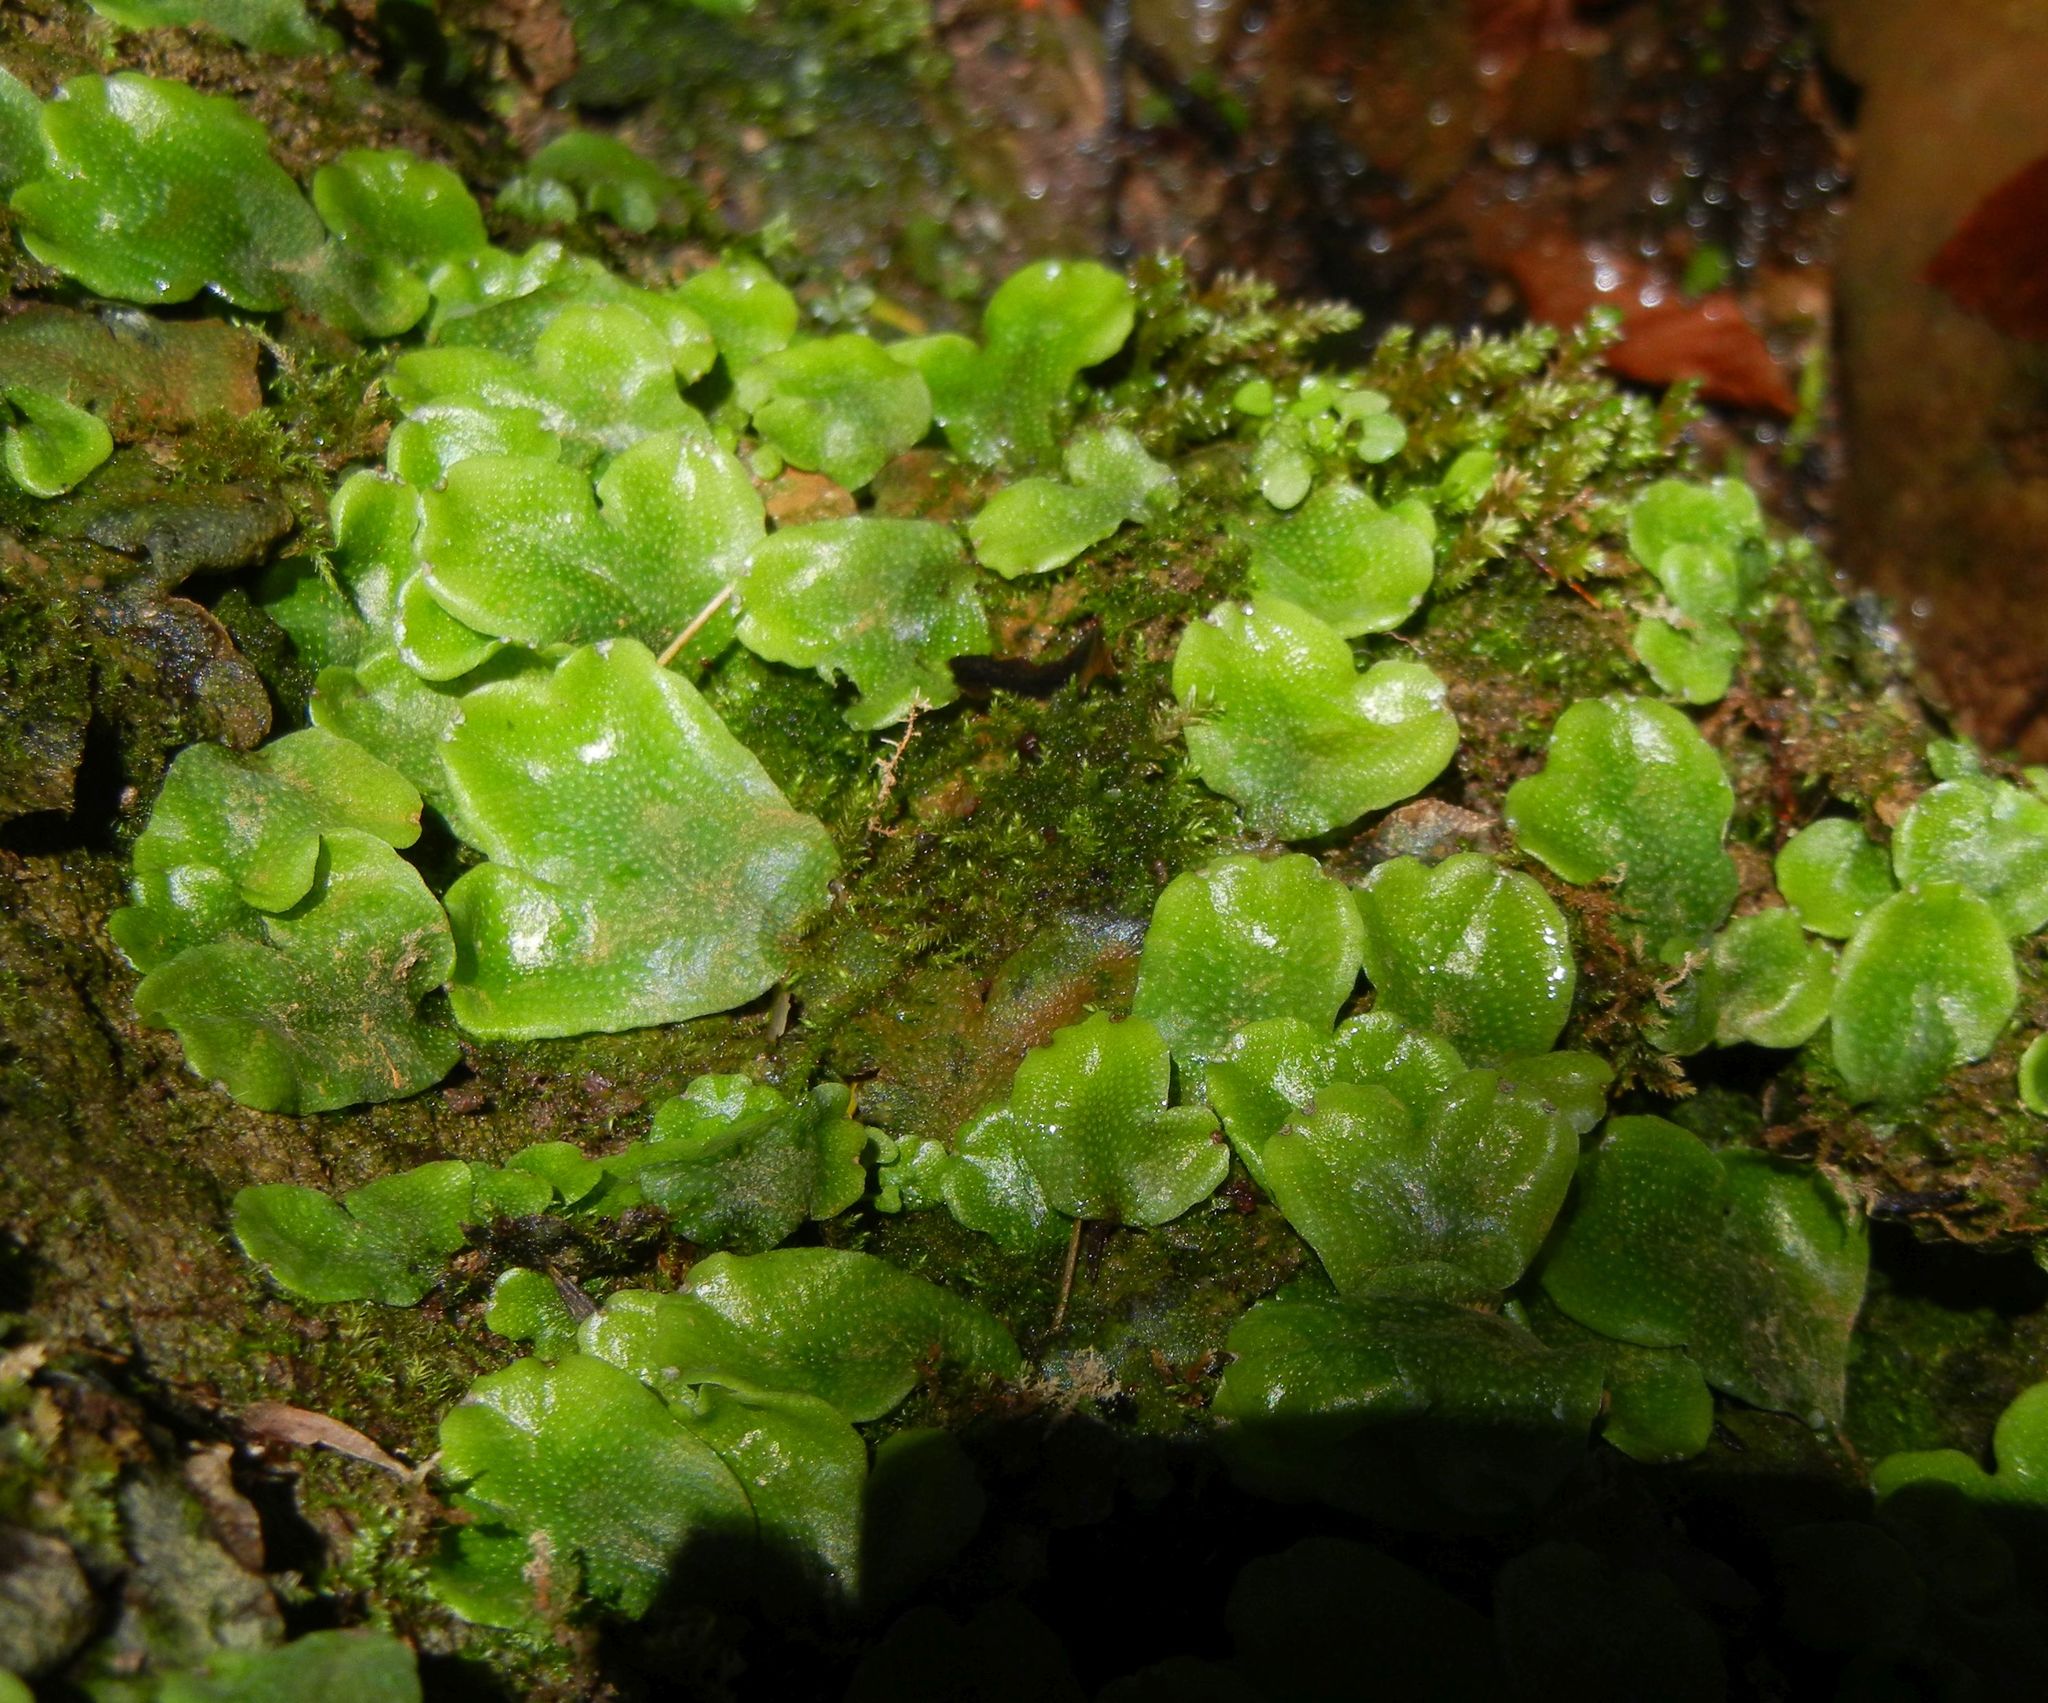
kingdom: Plantae
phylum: Marchantiophyta
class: Marchantiopsida
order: Marchantiales
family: Conocephalaceae
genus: Conocephalum
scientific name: Conocephalum conicum
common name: Great scented liverwort
